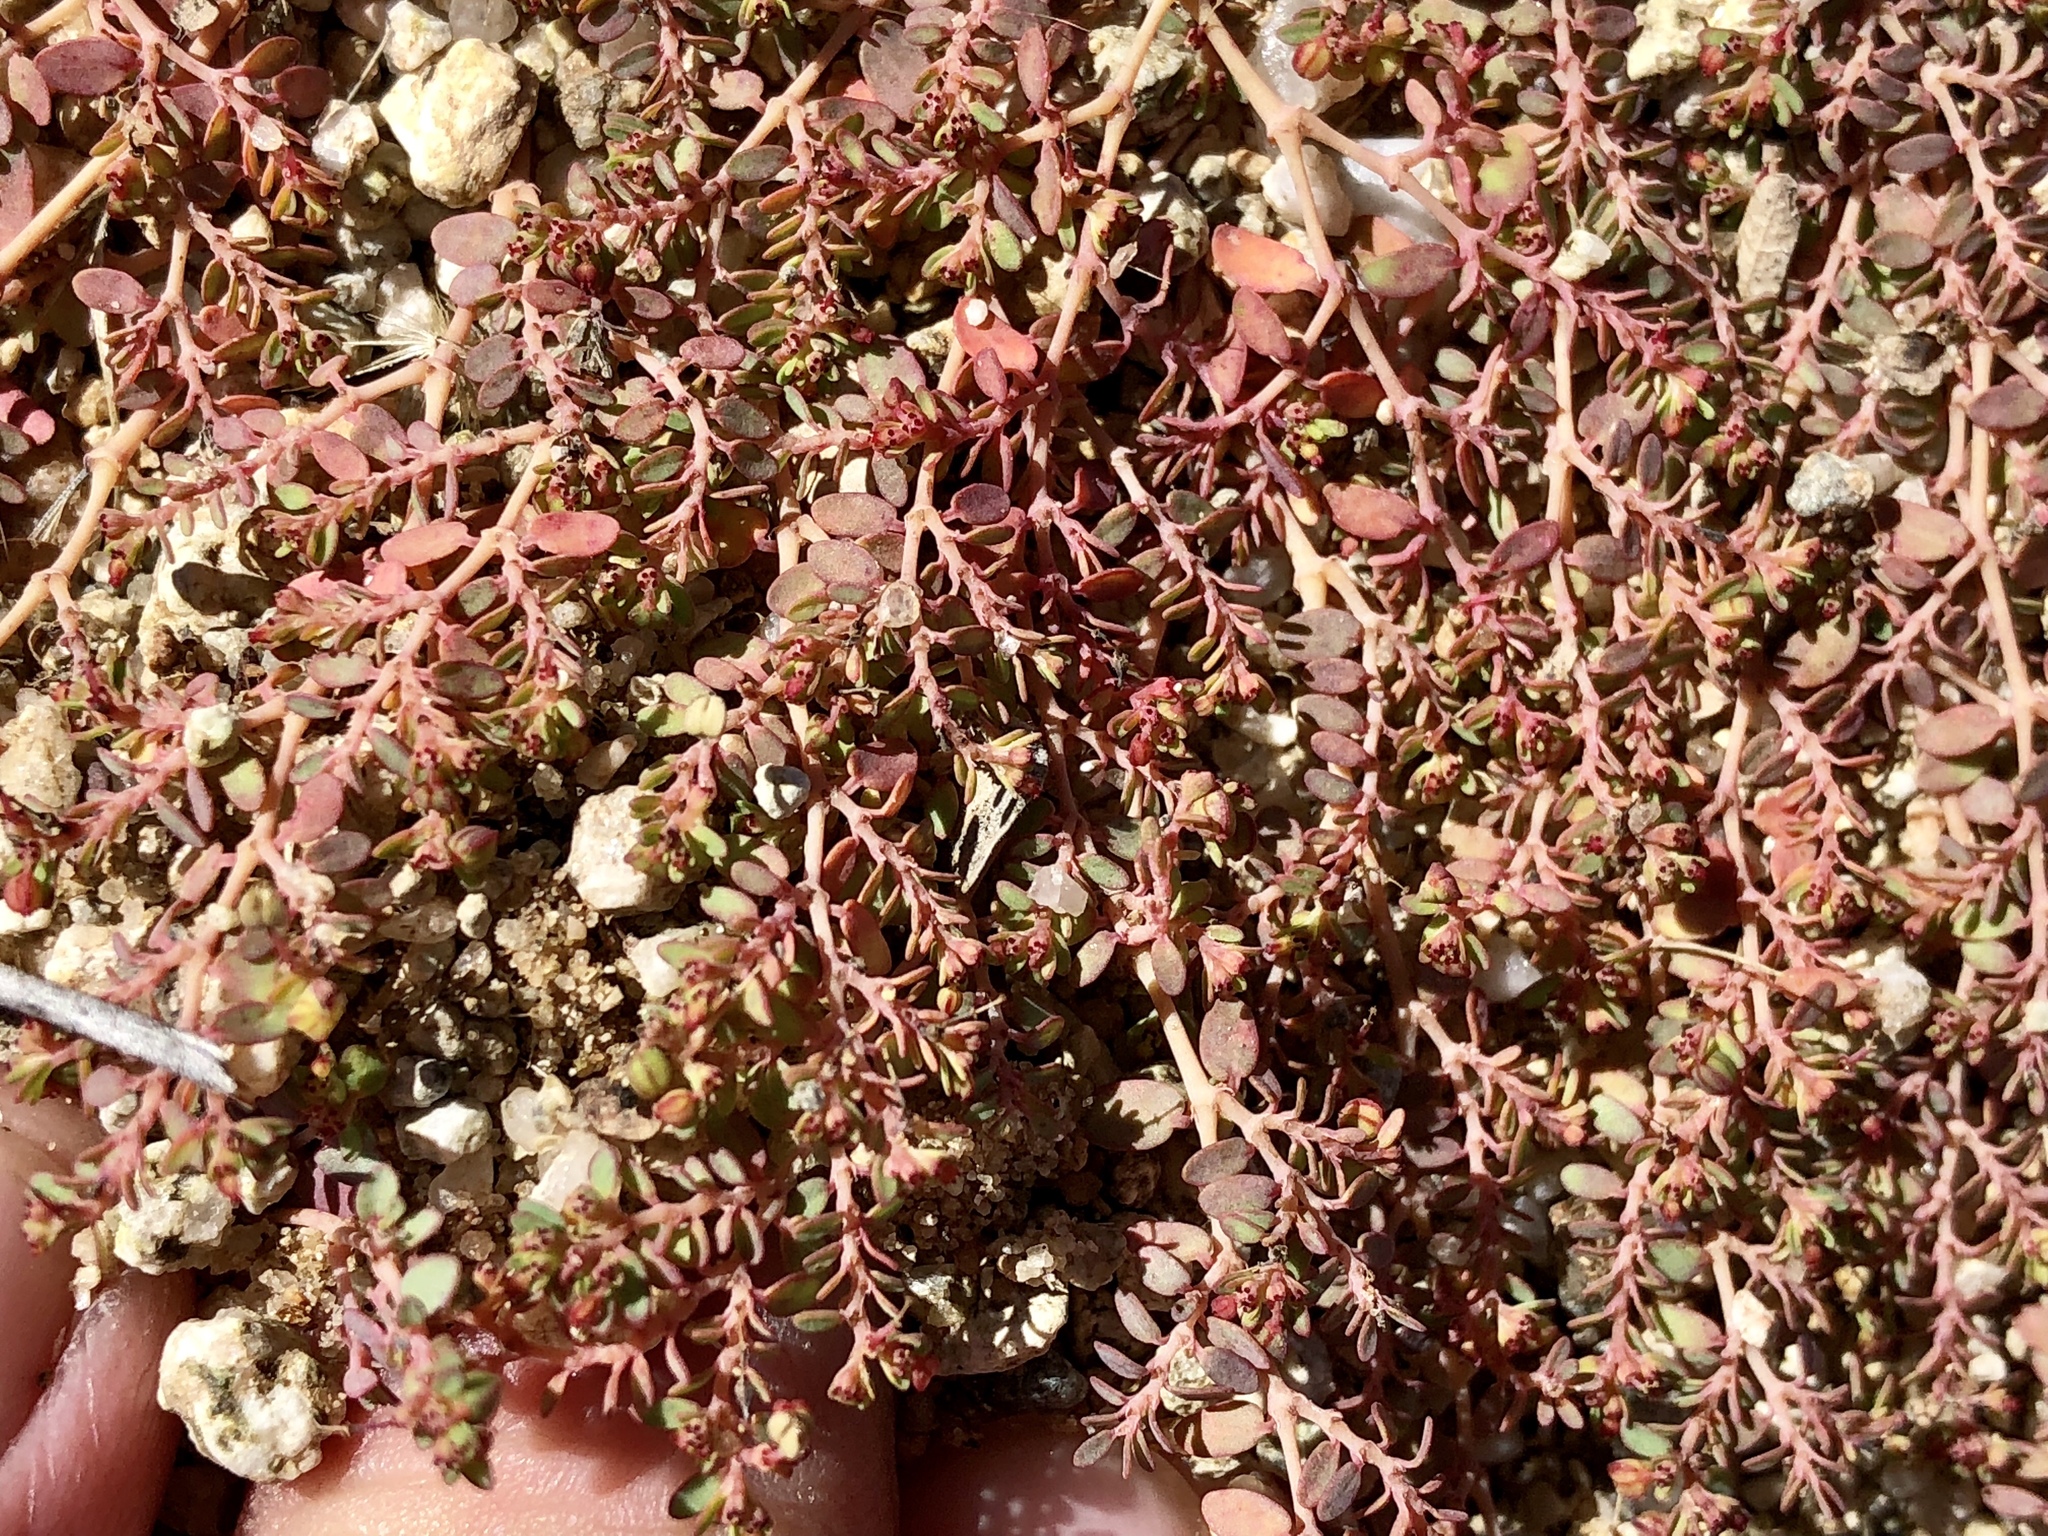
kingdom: Plantae
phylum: Tracheophyta
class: Magnoliopsida
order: Malpighiales
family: Euphorbiaceae
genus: Euphorbia
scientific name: Euphorbia micromera
